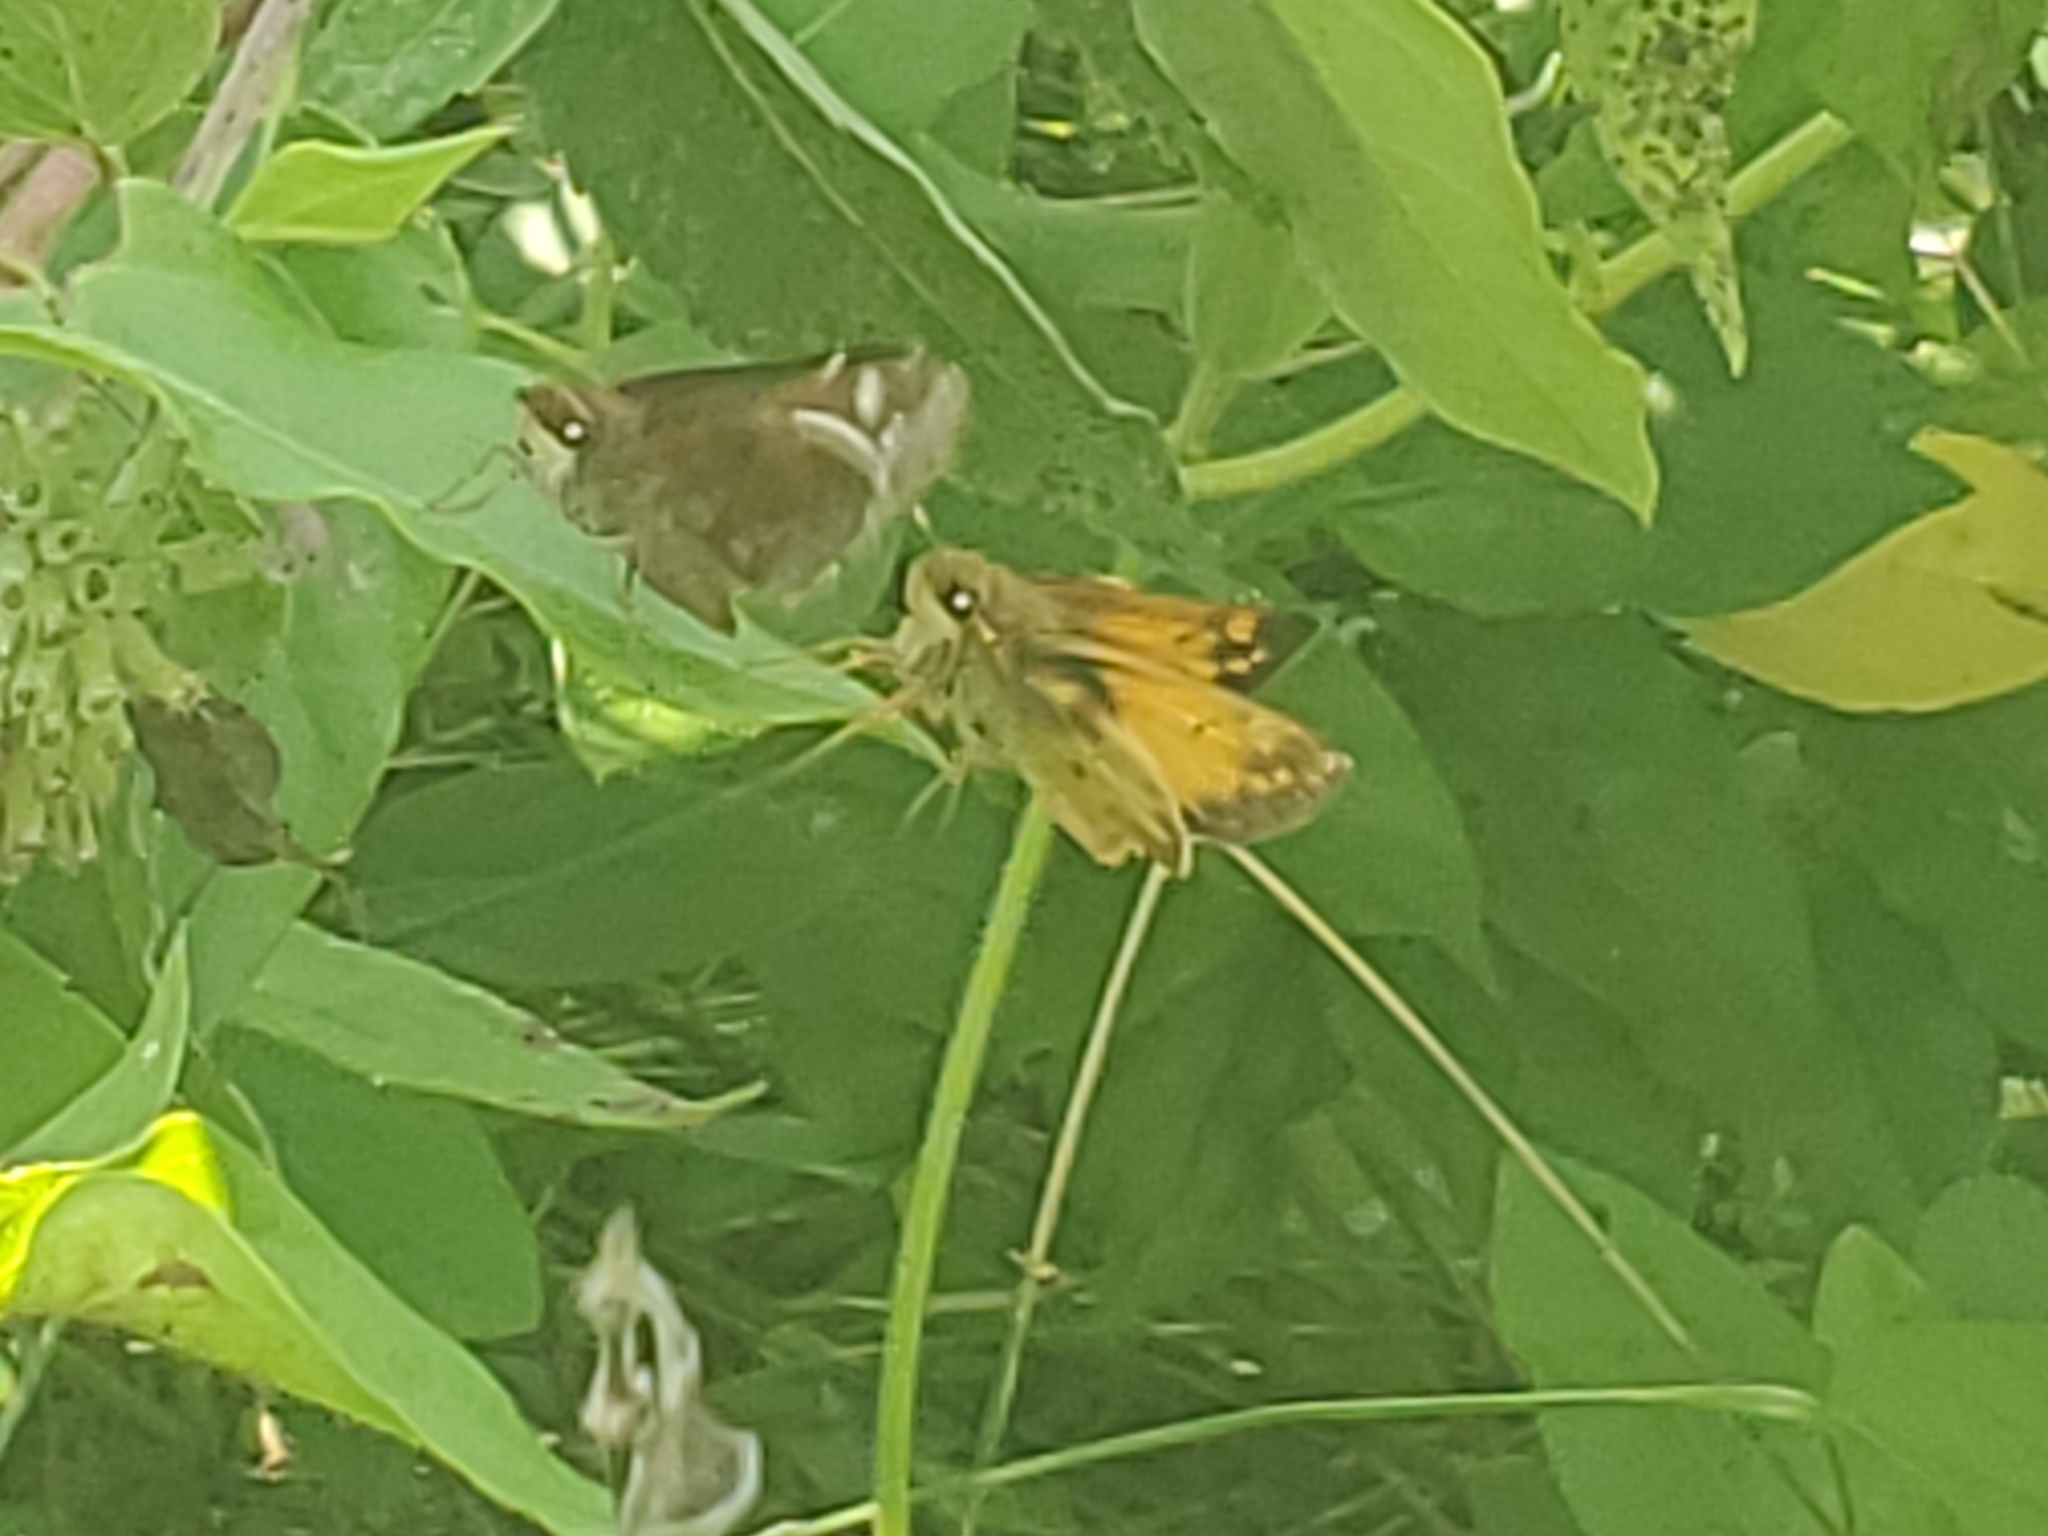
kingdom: Animalia
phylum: Arthropoda
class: Insecta
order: Lepidoptera
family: Hesperiidae
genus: Lon
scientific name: Lon zabulon
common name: Zabulon skipper
